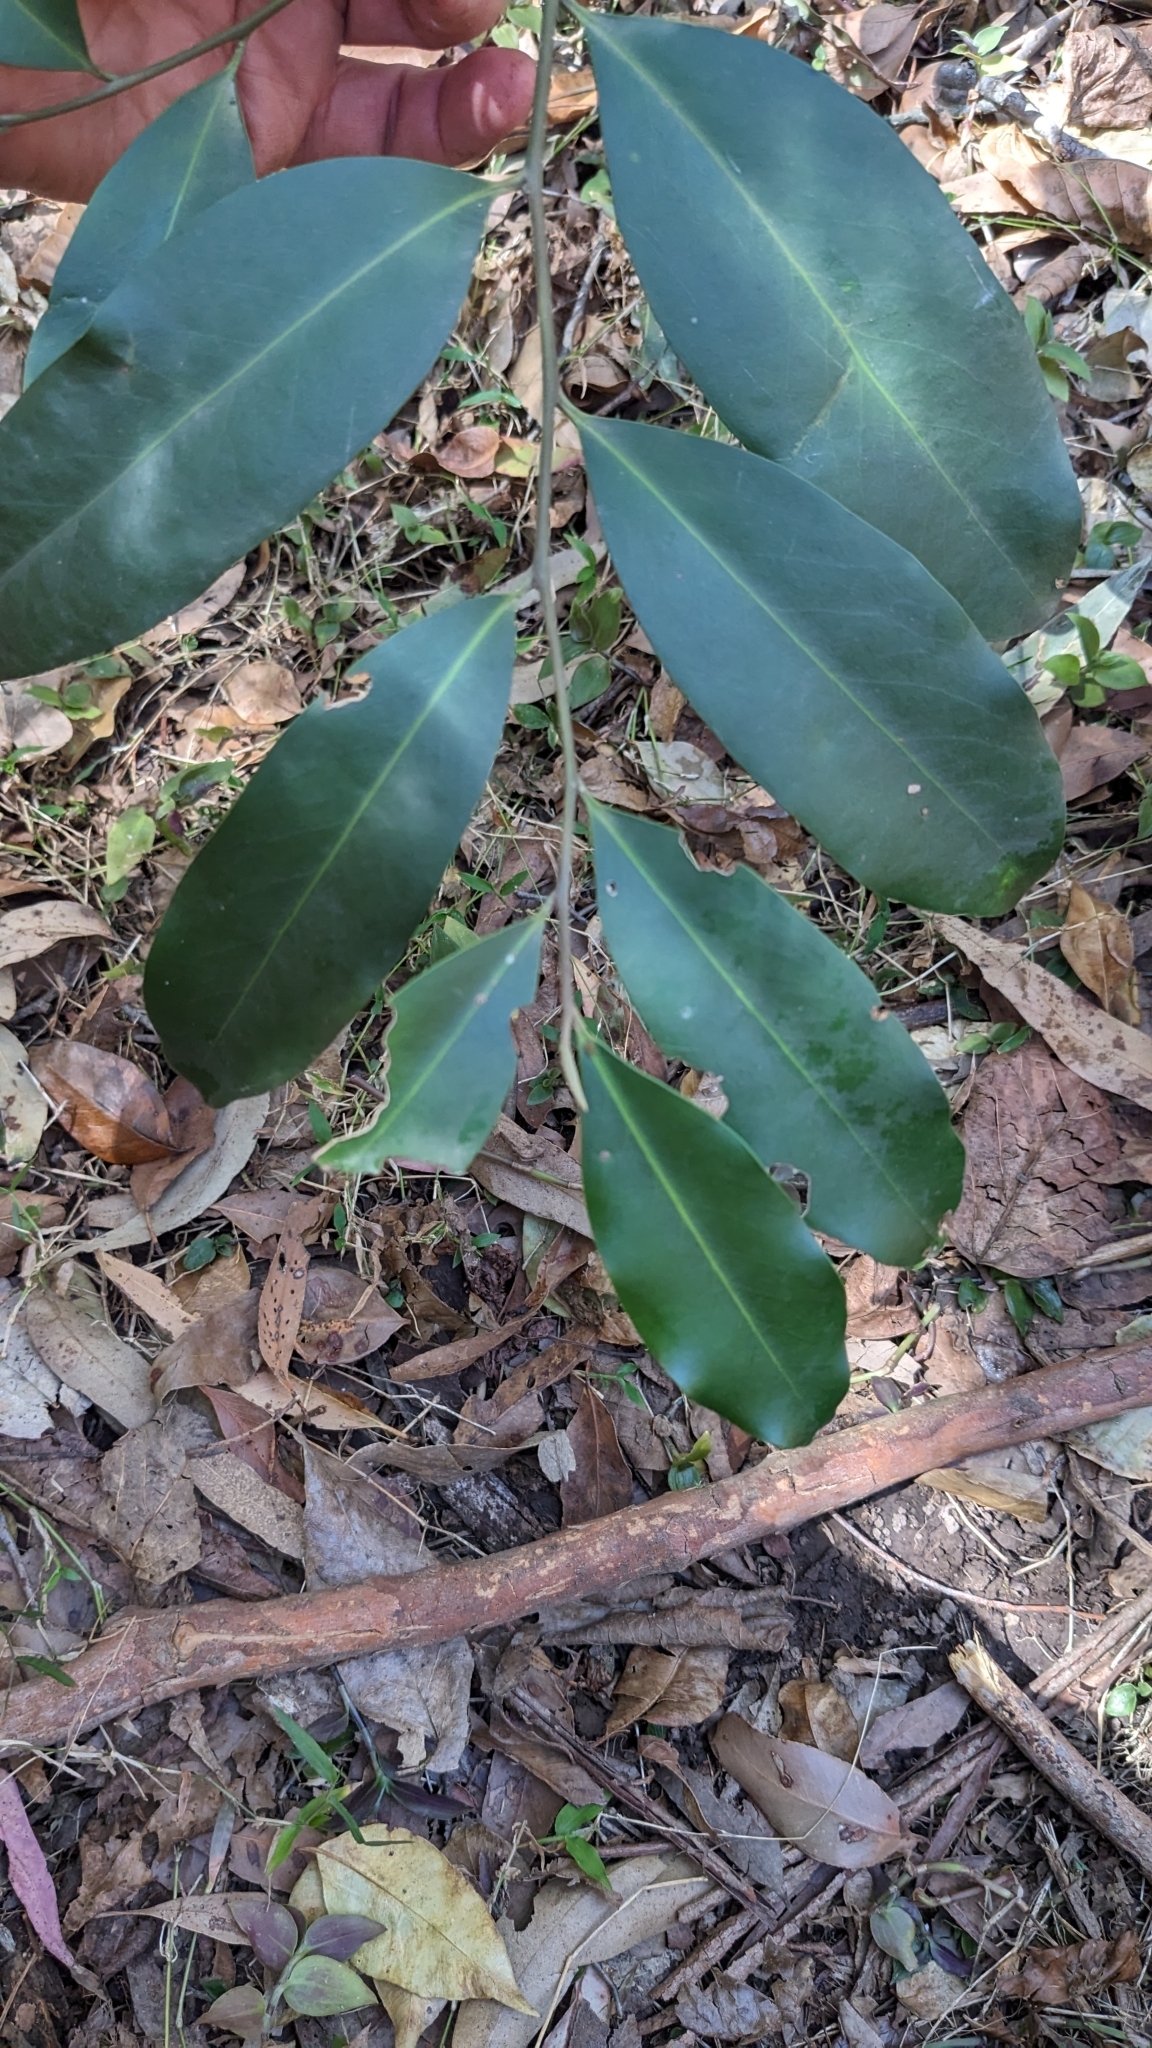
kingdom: Plantae
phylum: Tracheophyta
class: Magnoliopsida
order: Ericales
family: Ebenaceae
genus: Diospyros
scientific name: Diospyros australis
